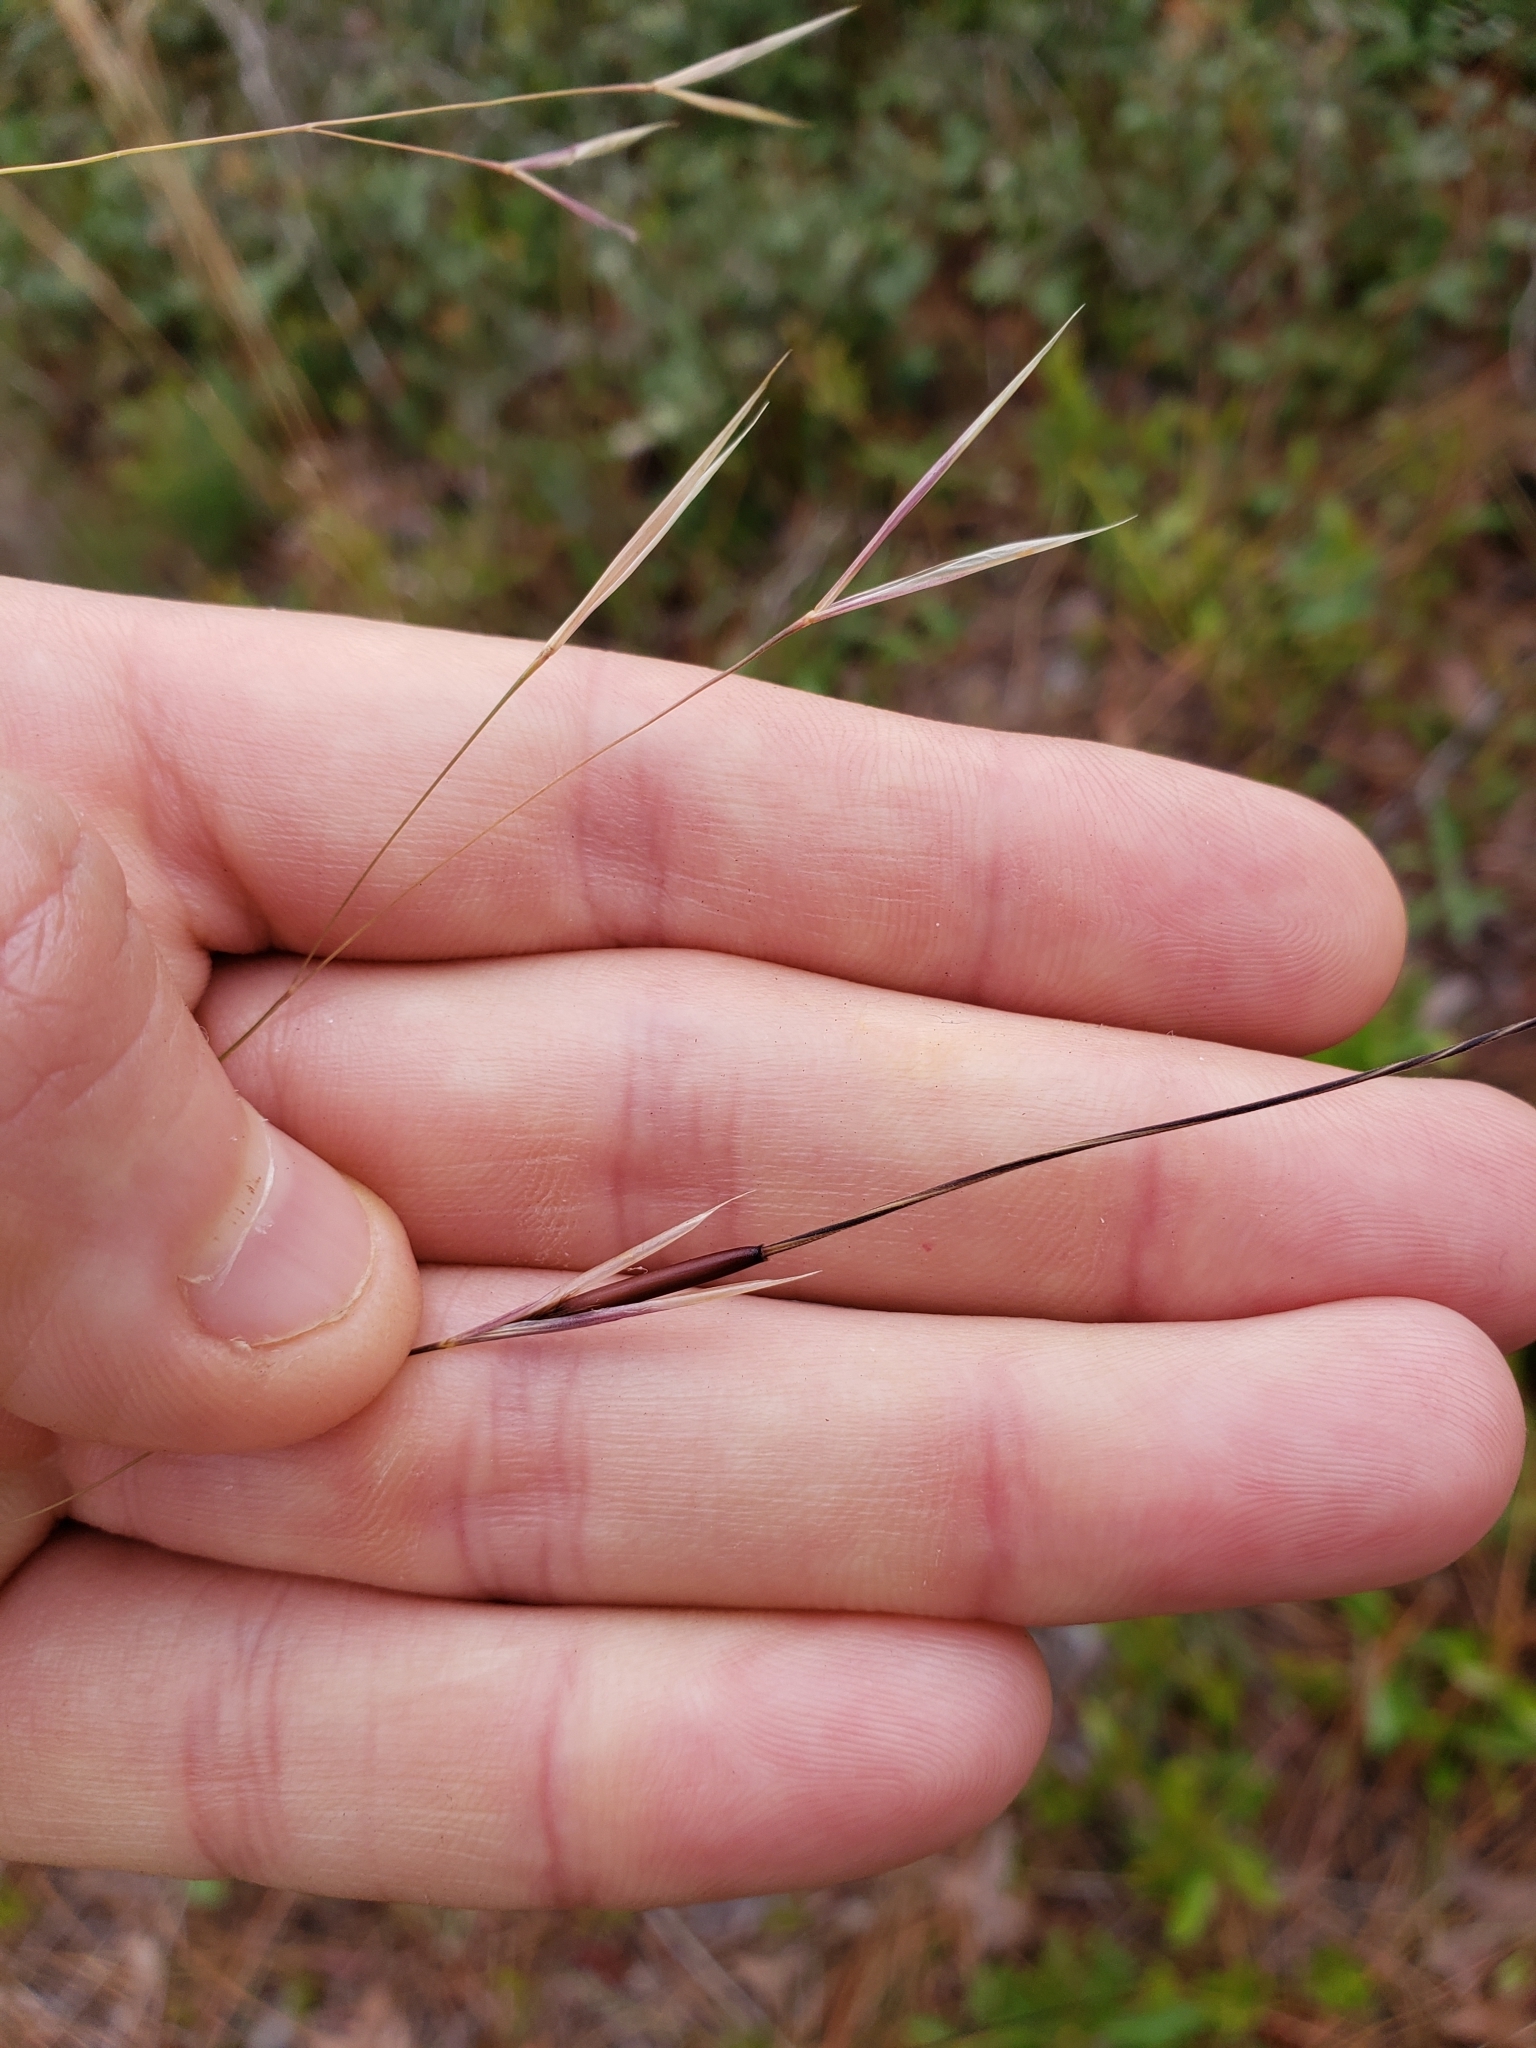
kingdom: Plantae
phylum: Tracheophyta
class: Liliopsida
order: Poales
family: Poaceae
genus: Piptochaetium
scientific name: Piptochaetium avenacioides
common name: Florida needlegrass
